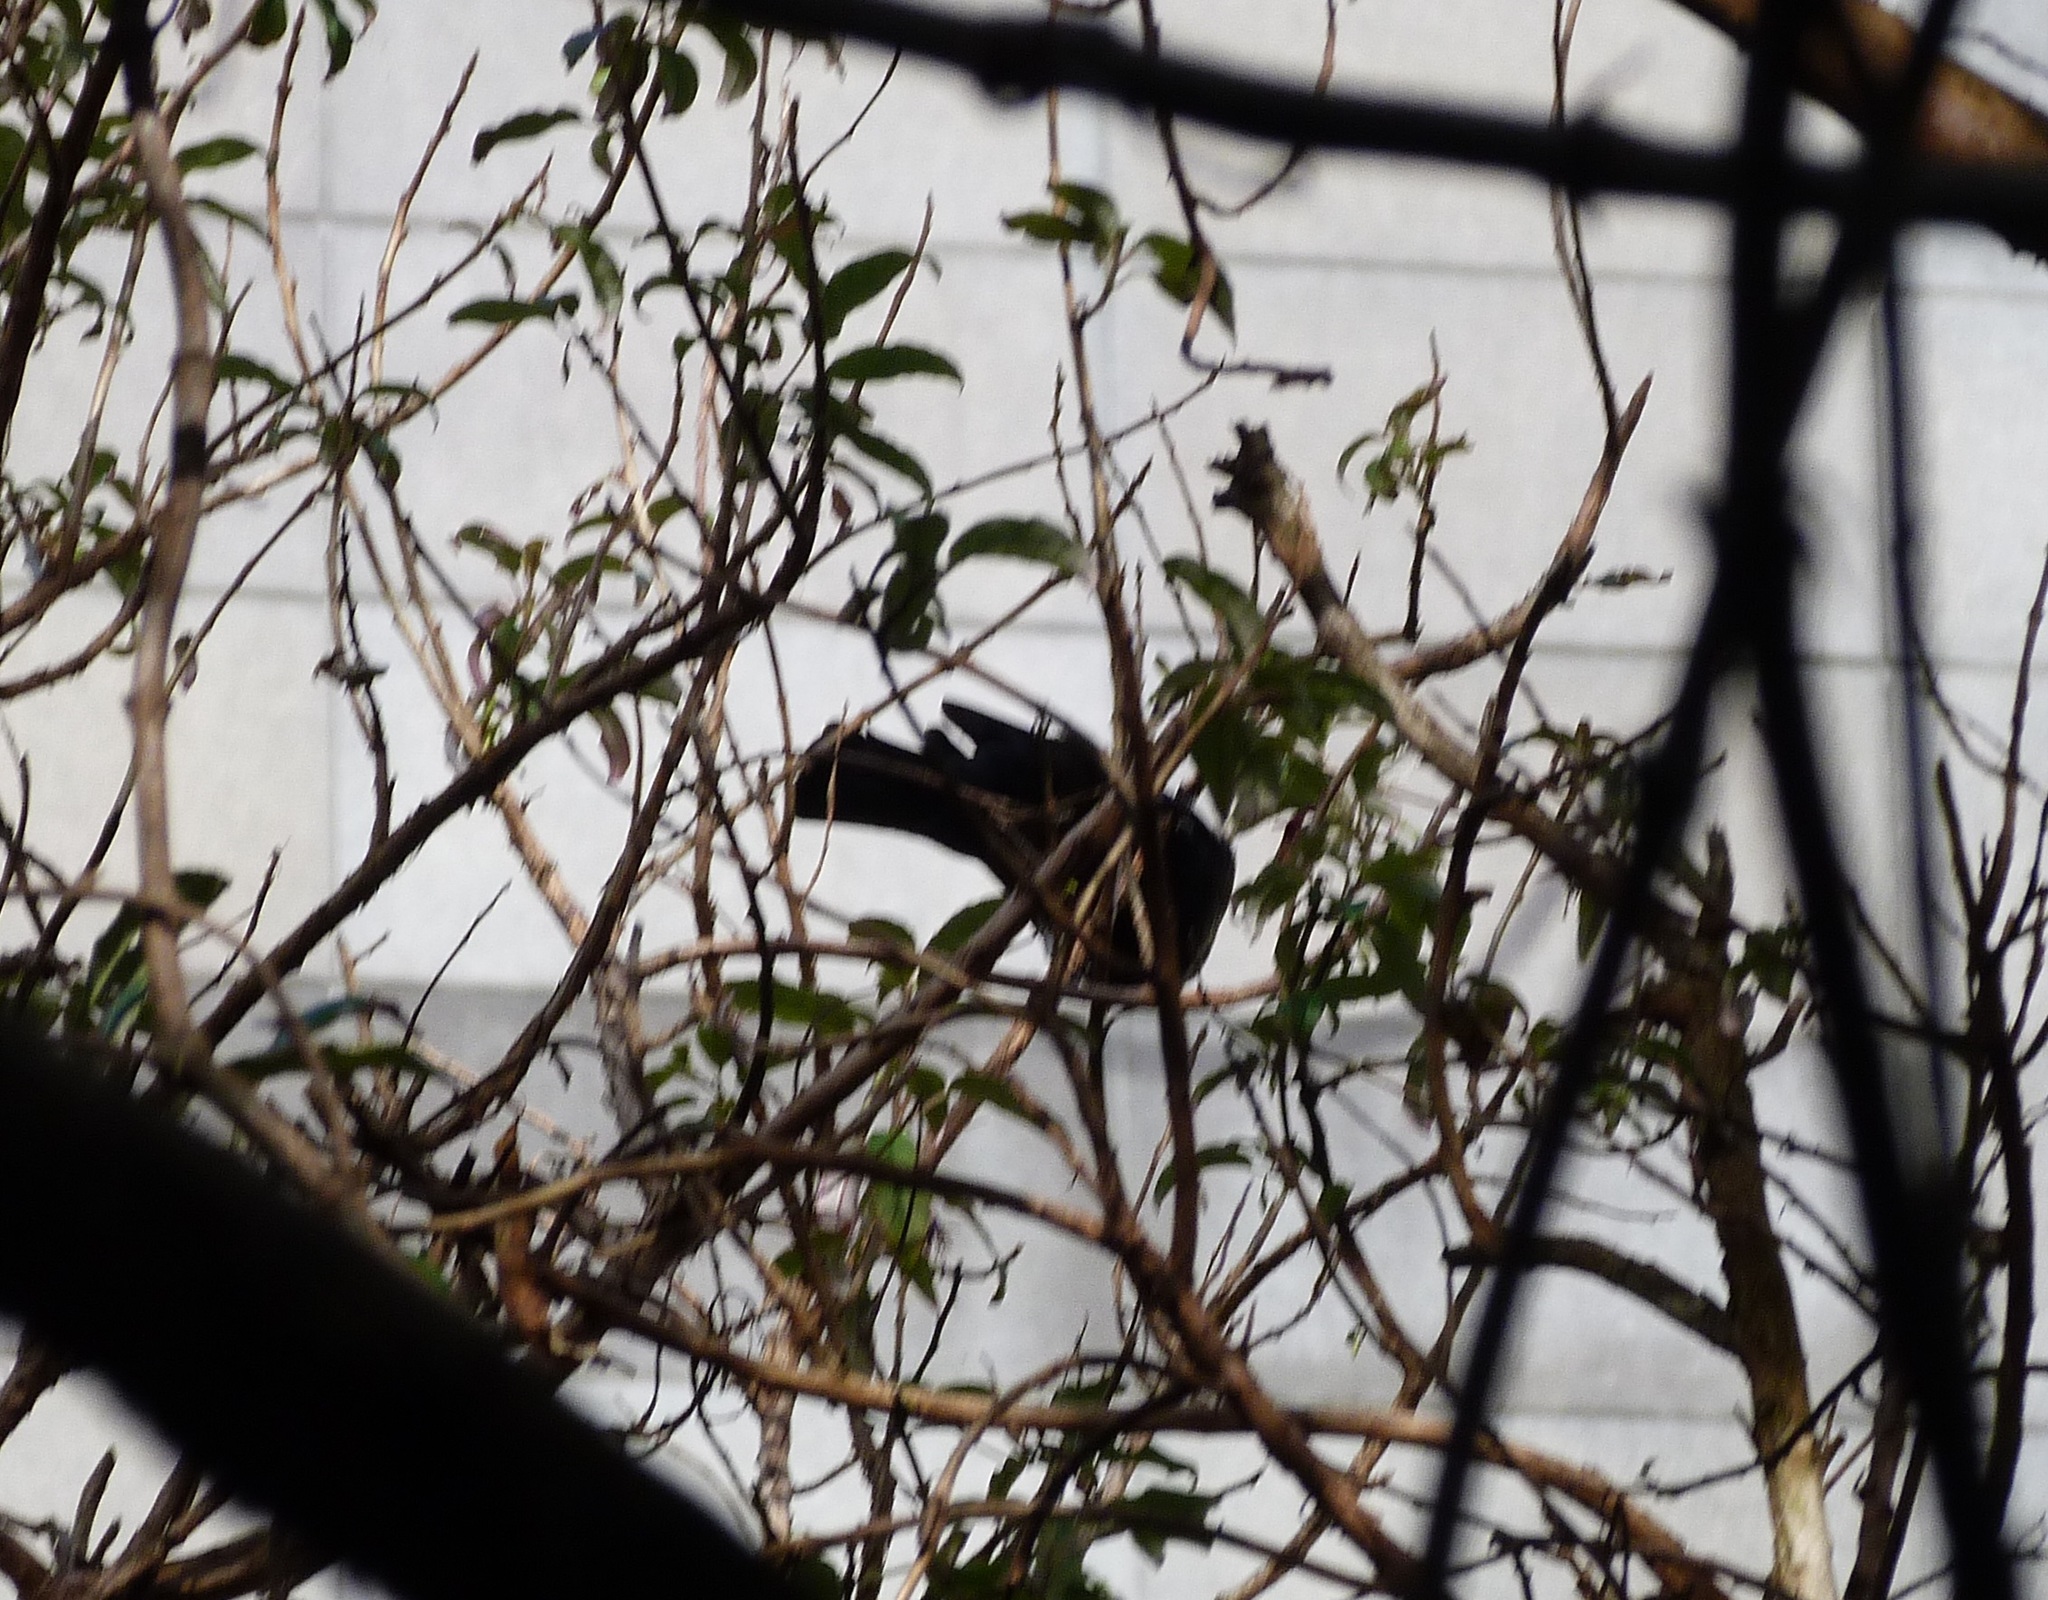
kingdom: Animalia
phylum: Chordata
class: Aves
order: Passeriformes
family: Meliphagidae
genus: Prosthemadera
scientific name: Prosthemadera novaeseelandiae
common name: Tui
